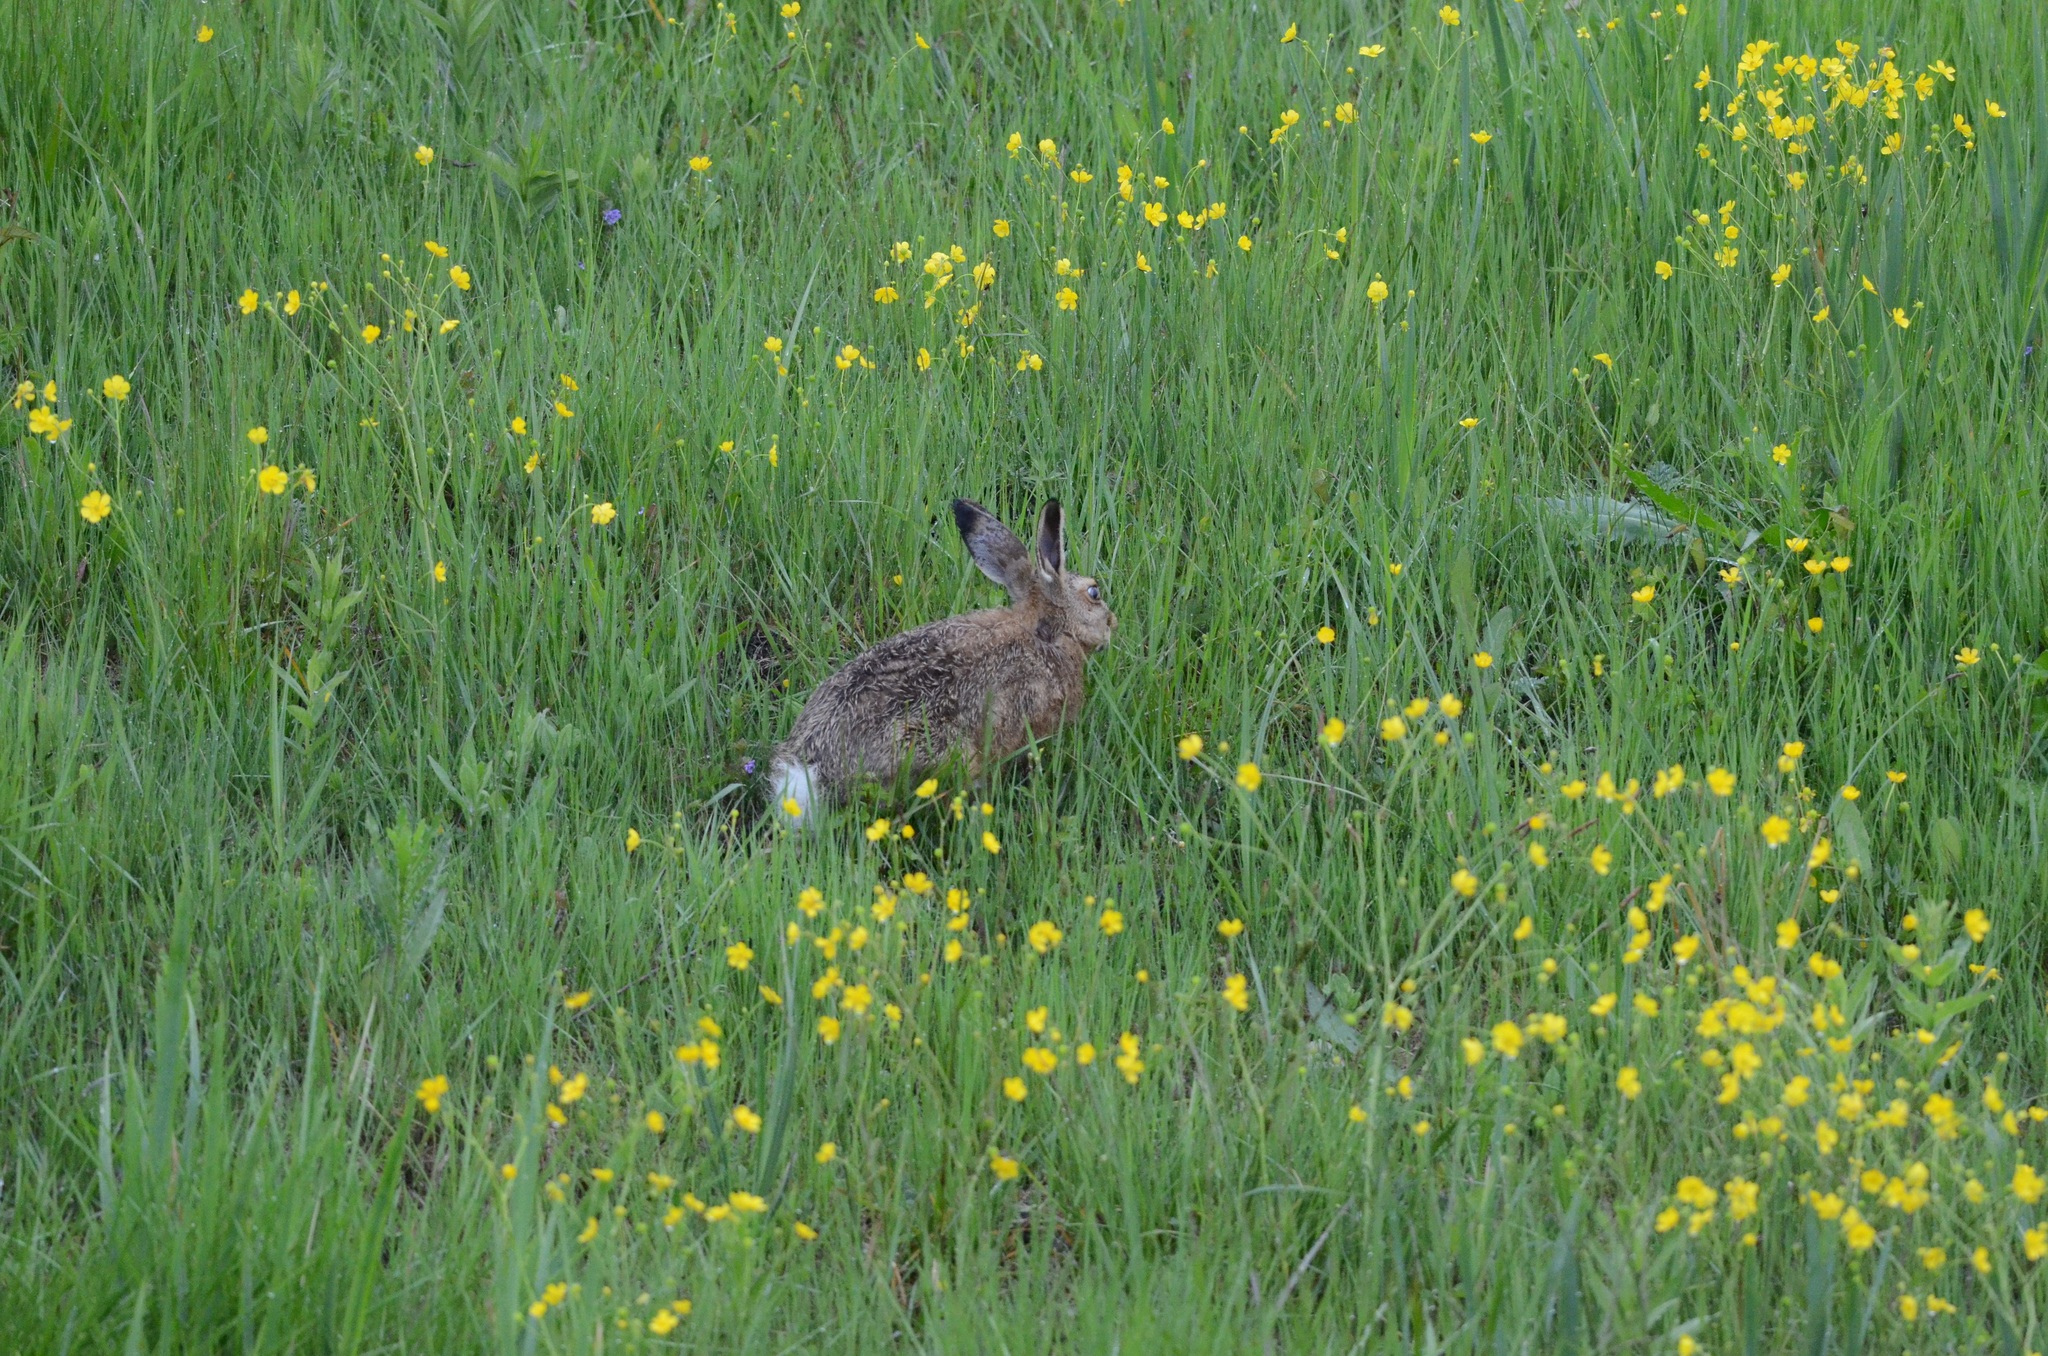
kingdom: Animalia
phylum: Chordata
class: Mammalia
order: Lagomorpha
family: Leporidae
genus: Lepus
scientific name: Lepus europaeus
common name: European hare
